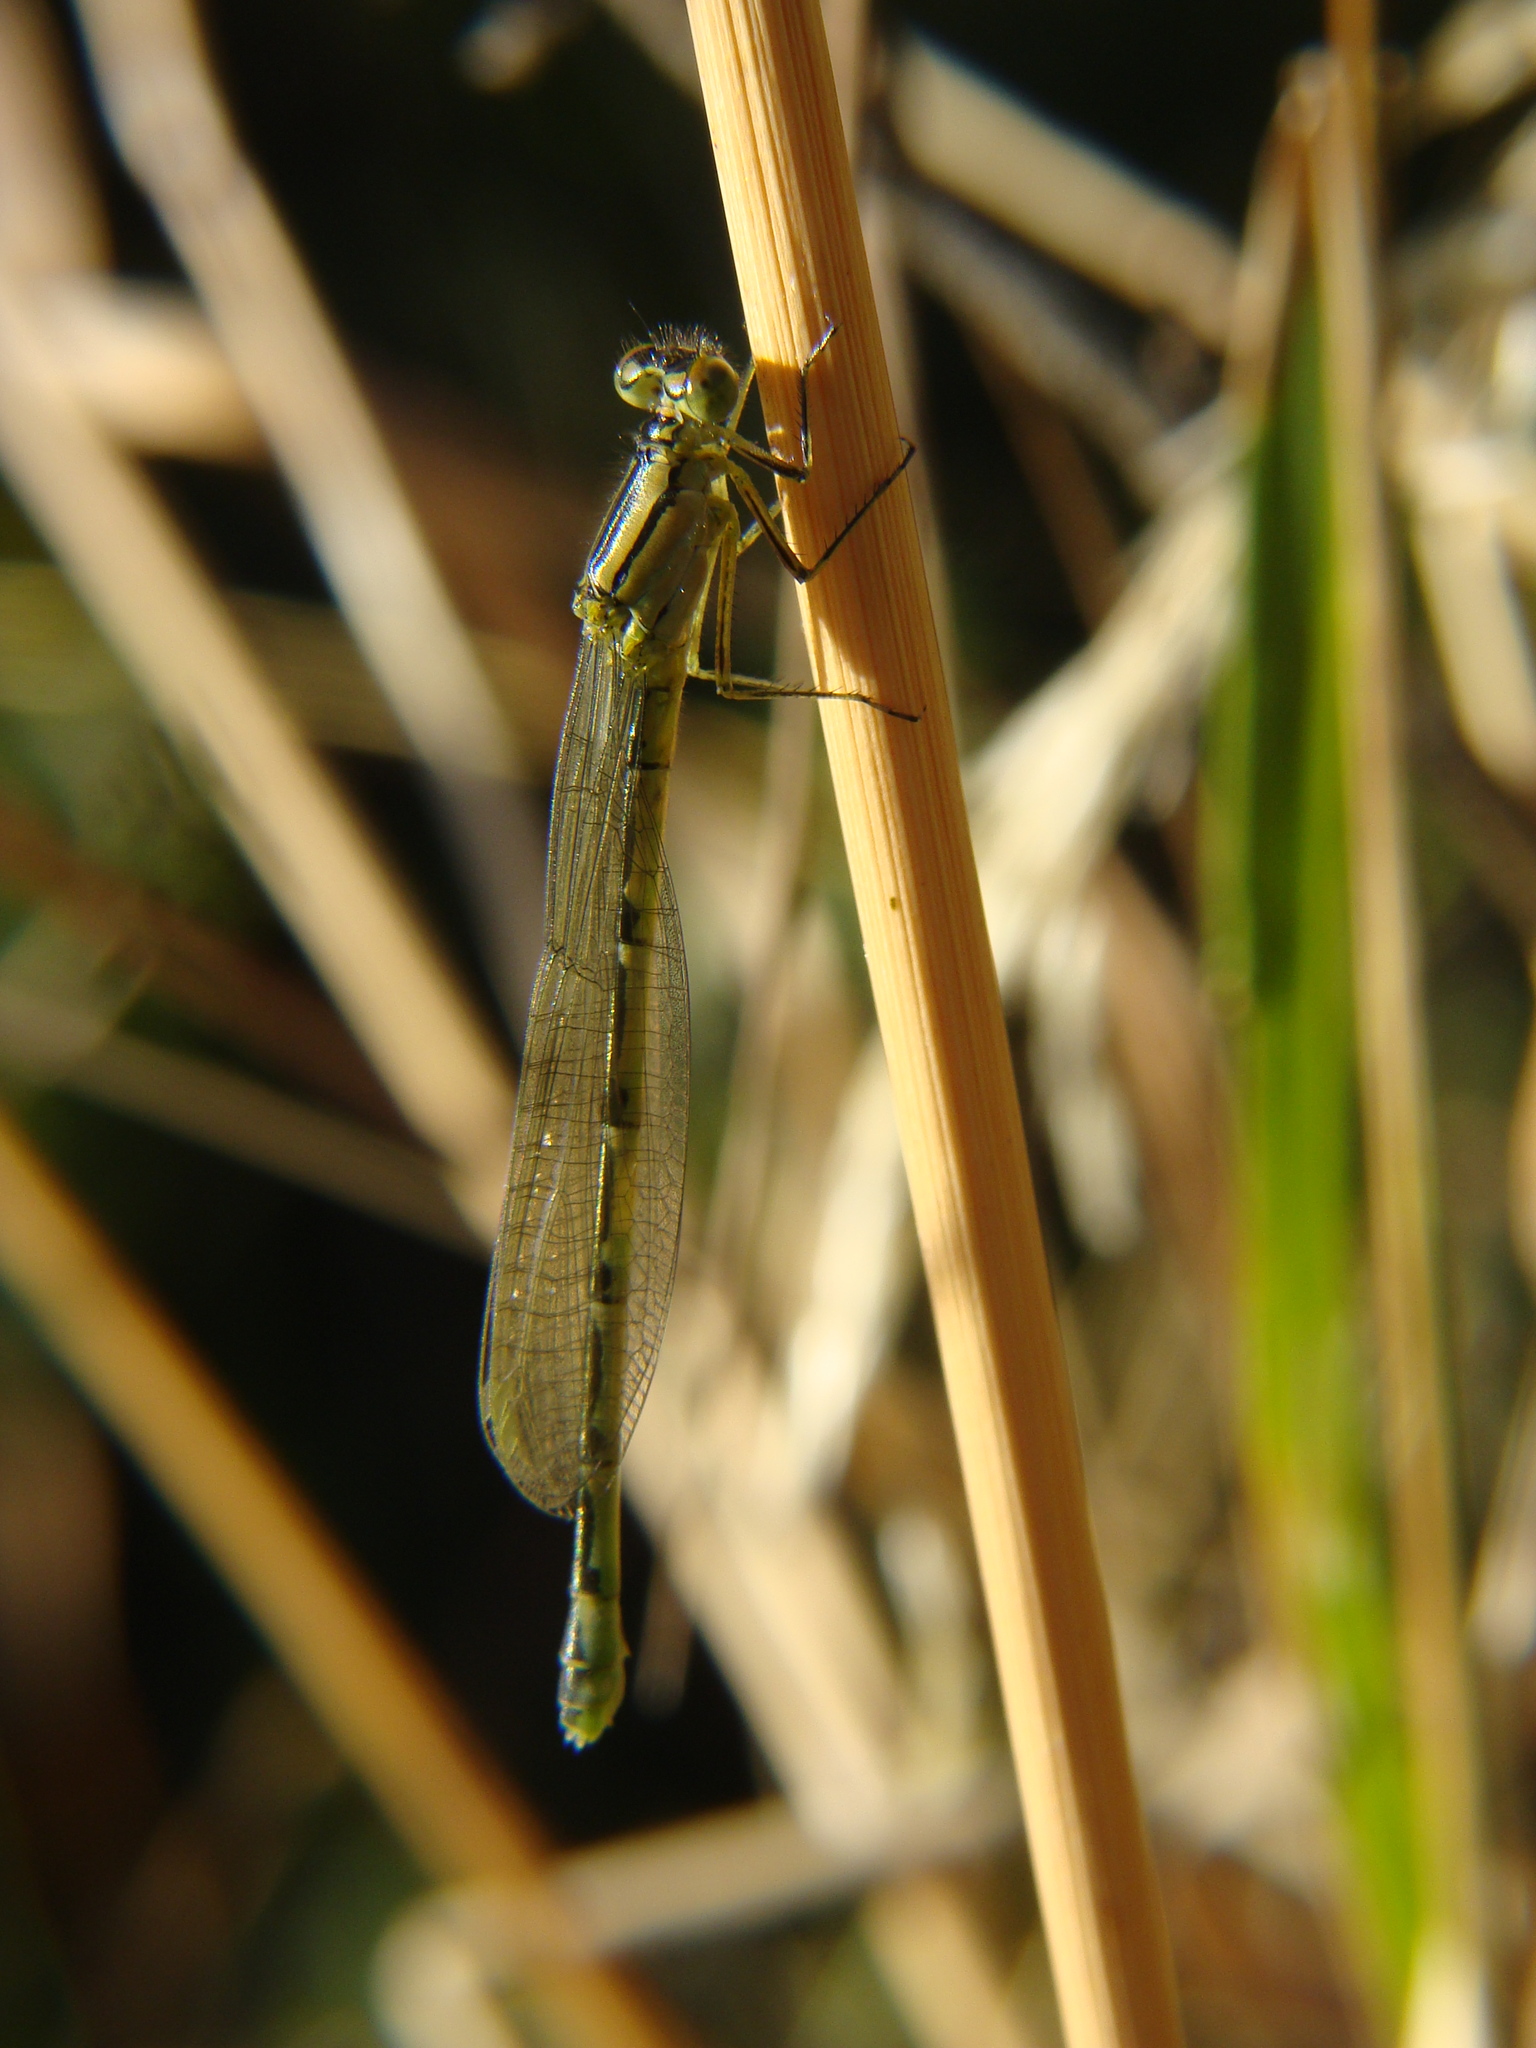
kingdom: Animalia
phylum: Arthropoda
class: Insecta
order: Odonata
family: Coenagrionidae
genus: Enallagma
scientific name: Enallagma cyathigerum
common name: Common blue damselfly
